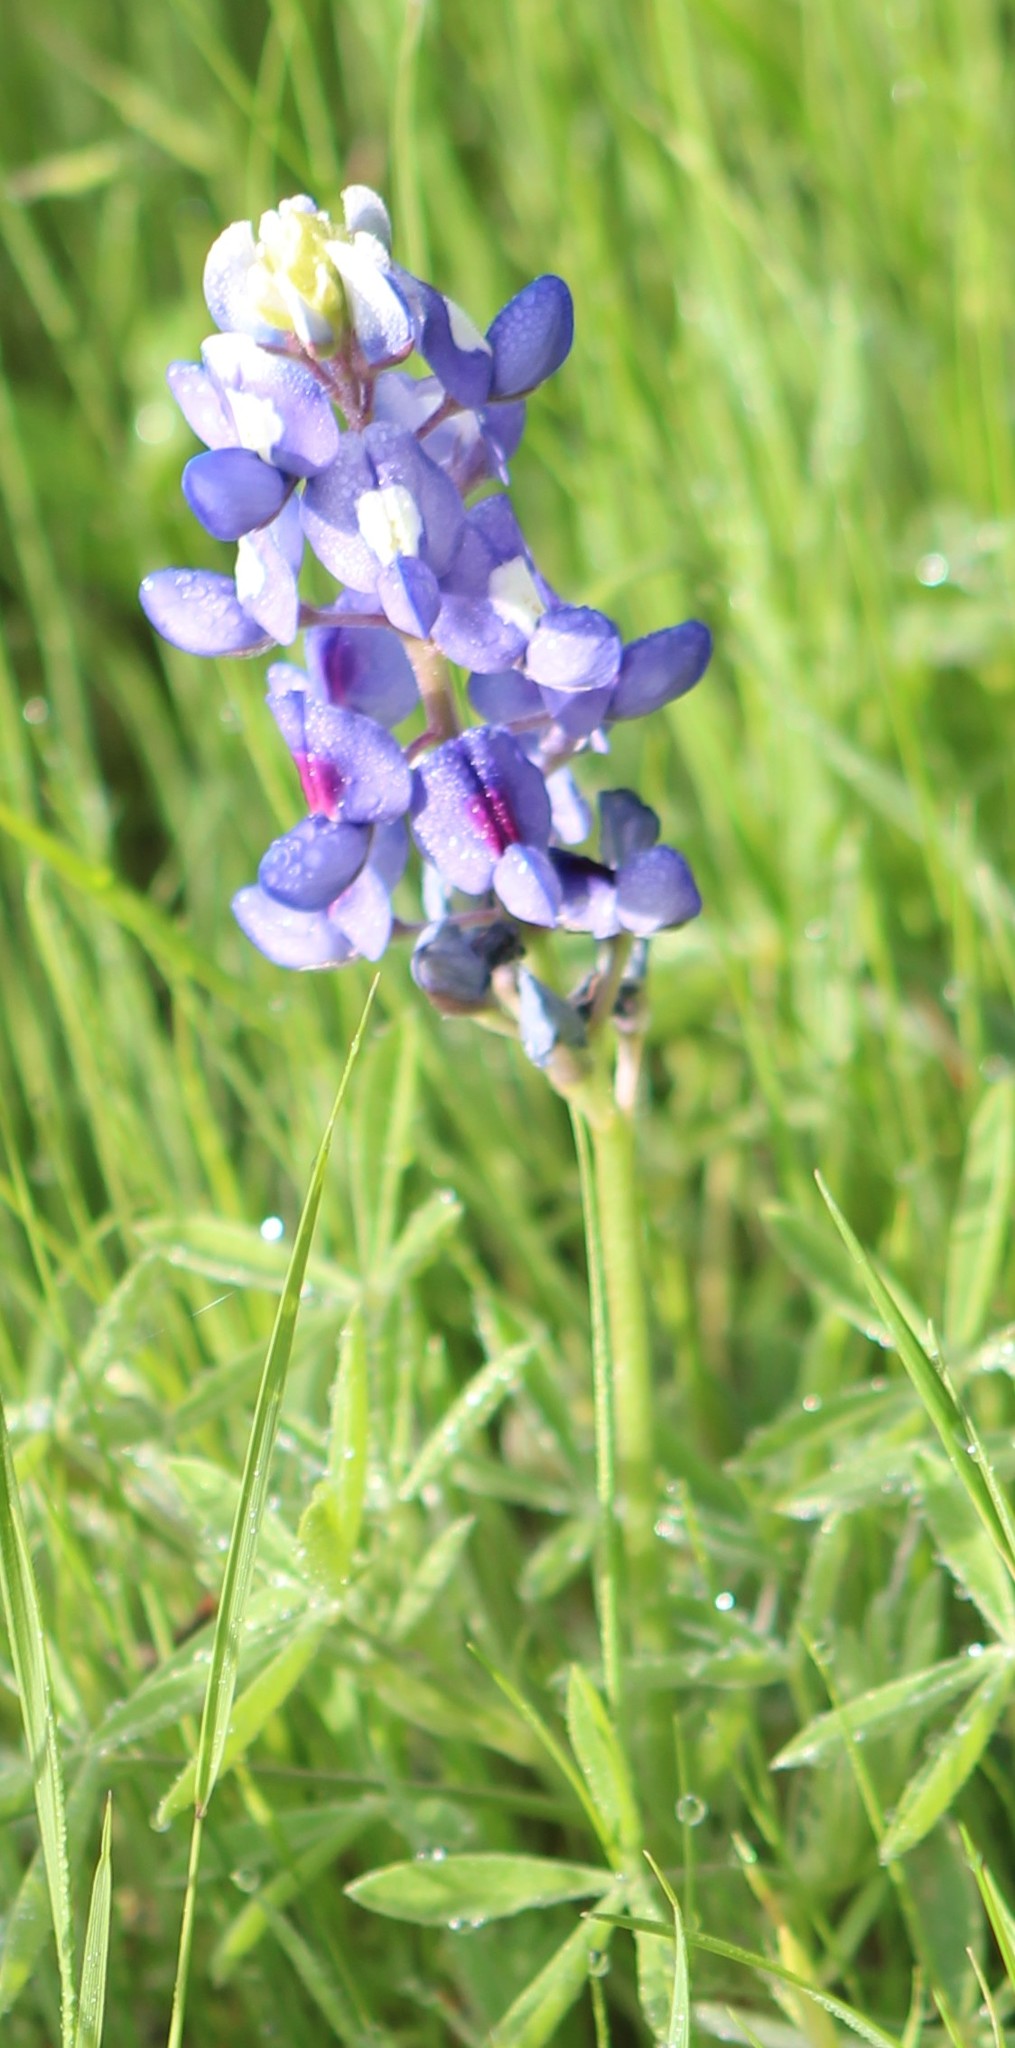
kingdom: Plantae
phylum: Tracheophyta
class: Magnoliopsida
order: Fabales
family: Fabaceae
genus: Lupinus
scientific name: Lupinus texensis
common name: Texas bluebonnet
